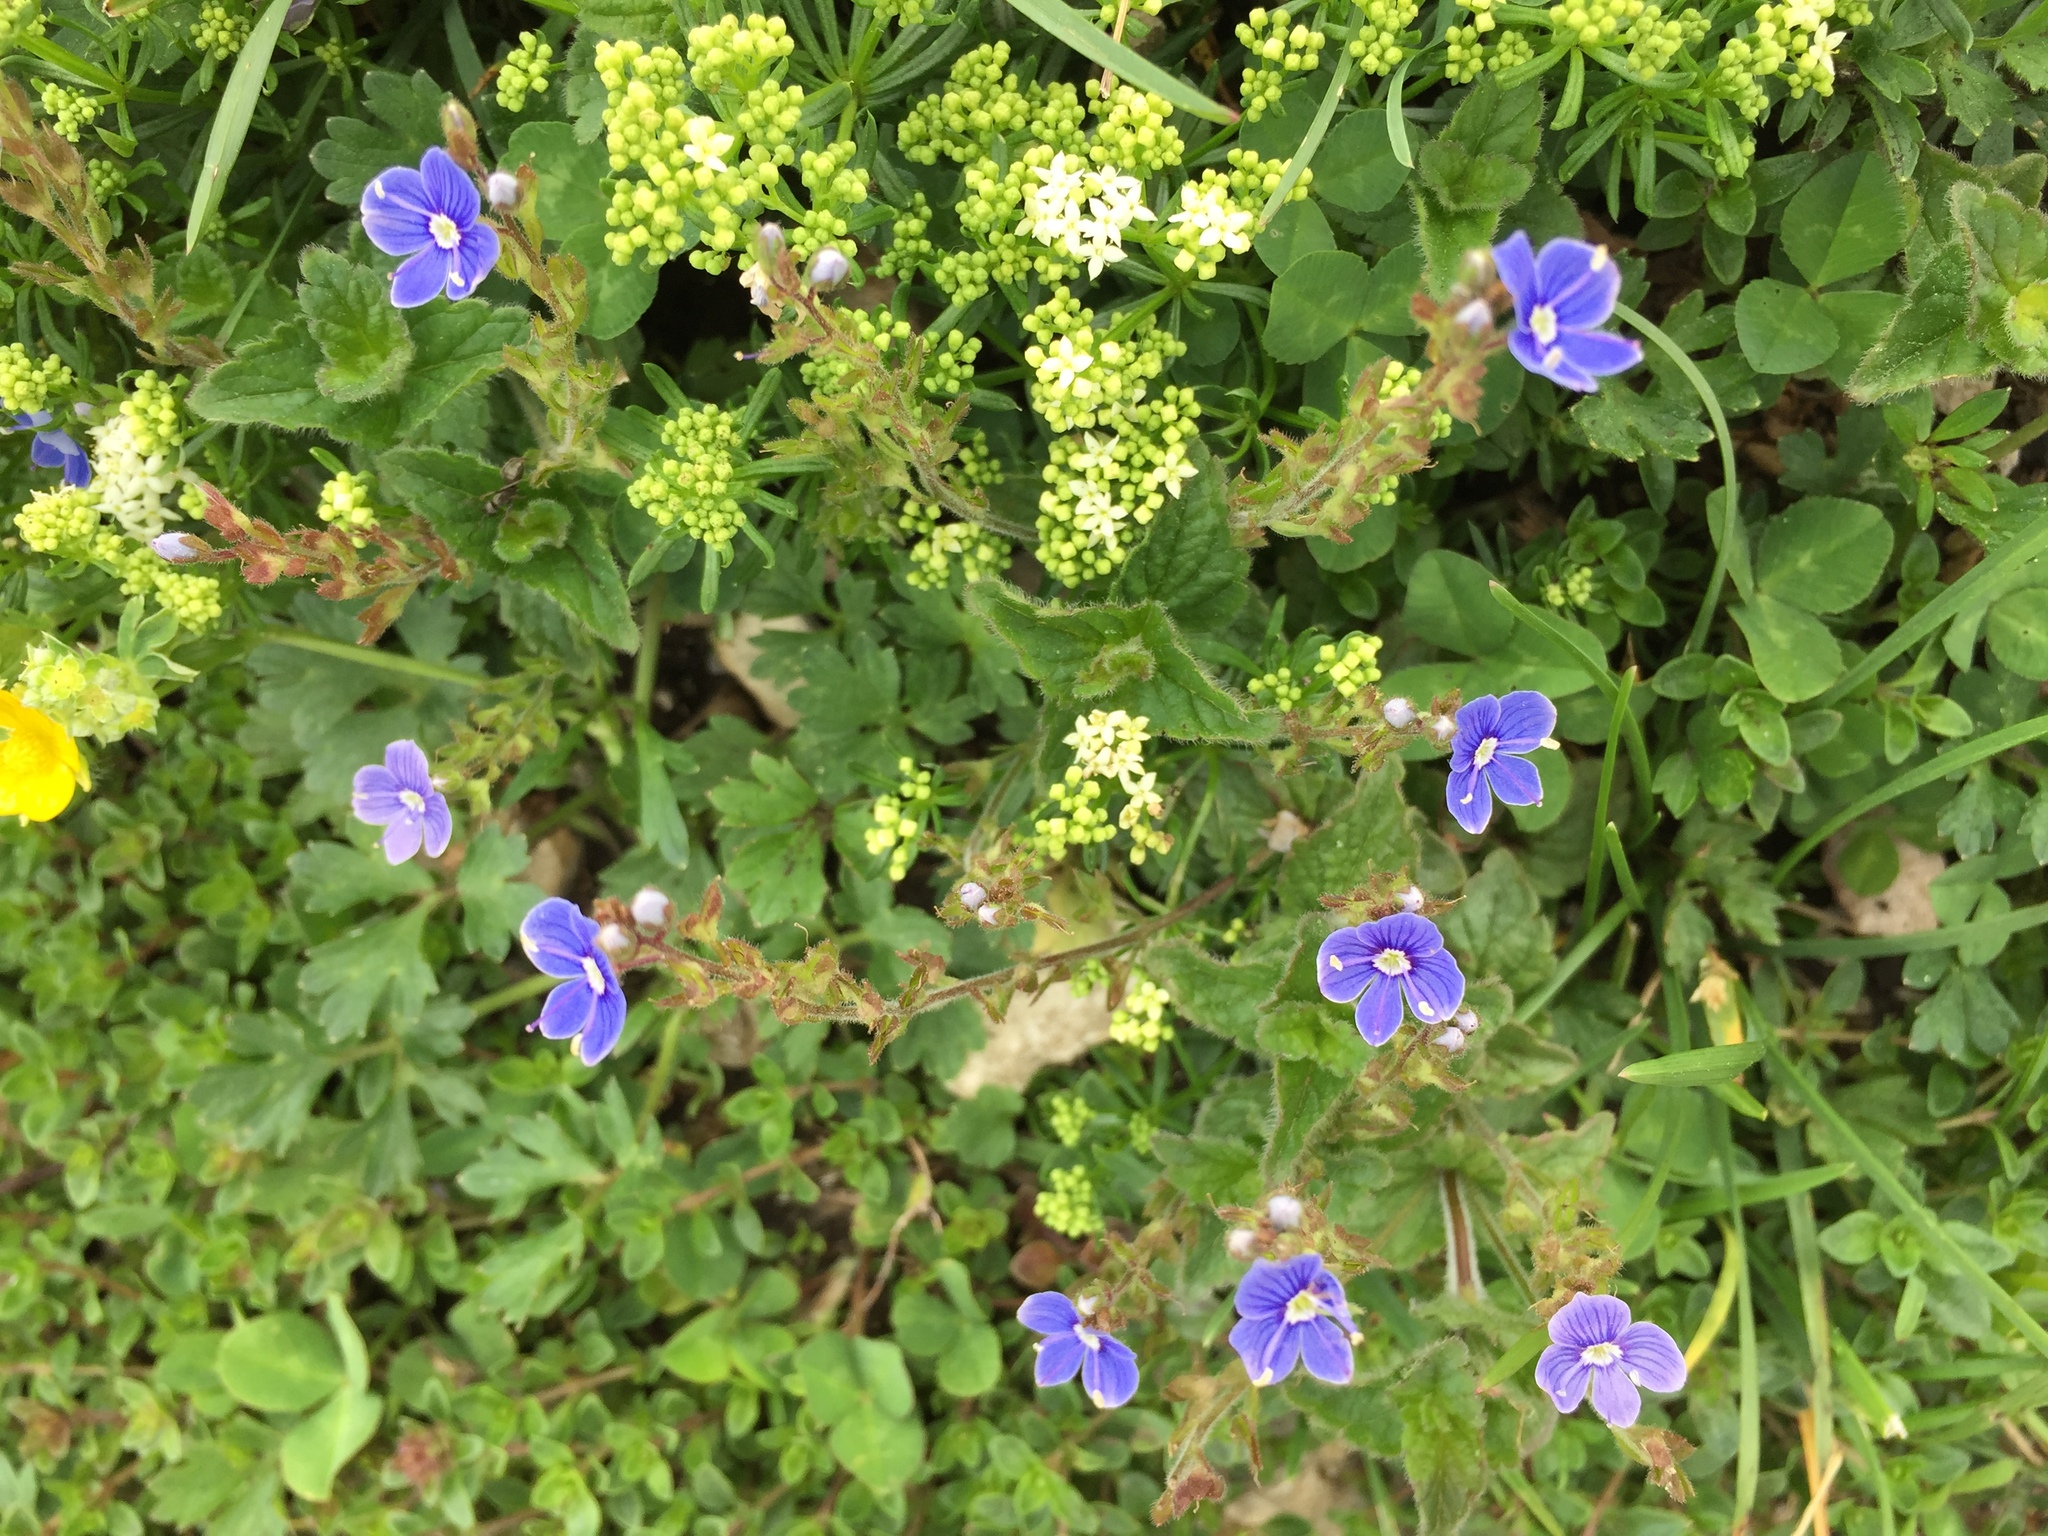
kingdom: Plantae
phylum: Tracheophyta
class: Magnoliopsida
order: Lamiales
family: Plantaginaceae
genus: Veronica
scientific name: Veronica chamaedrys
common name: Germander speedwell
